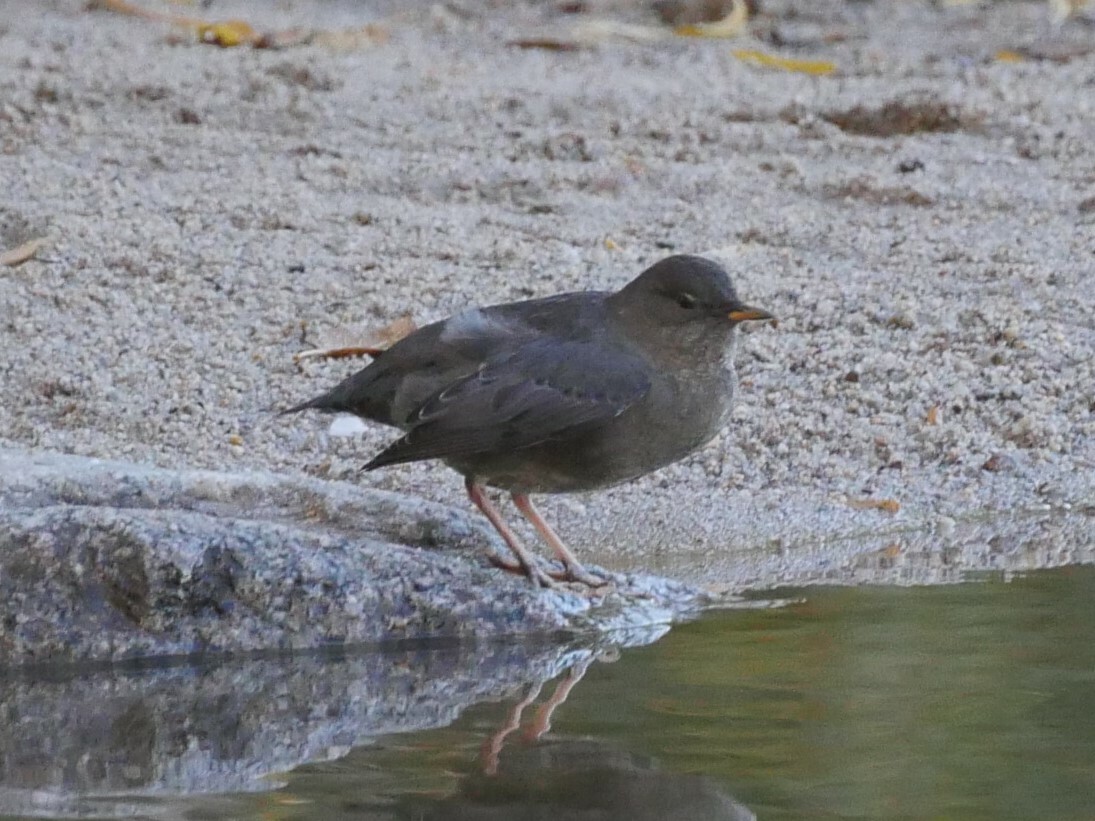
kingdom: Animalia
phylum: Chordata
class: Aves
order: Passeriformes
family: Cinclidae
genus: Cinclus
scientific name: Cinclus mexicanus
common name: American dipper
